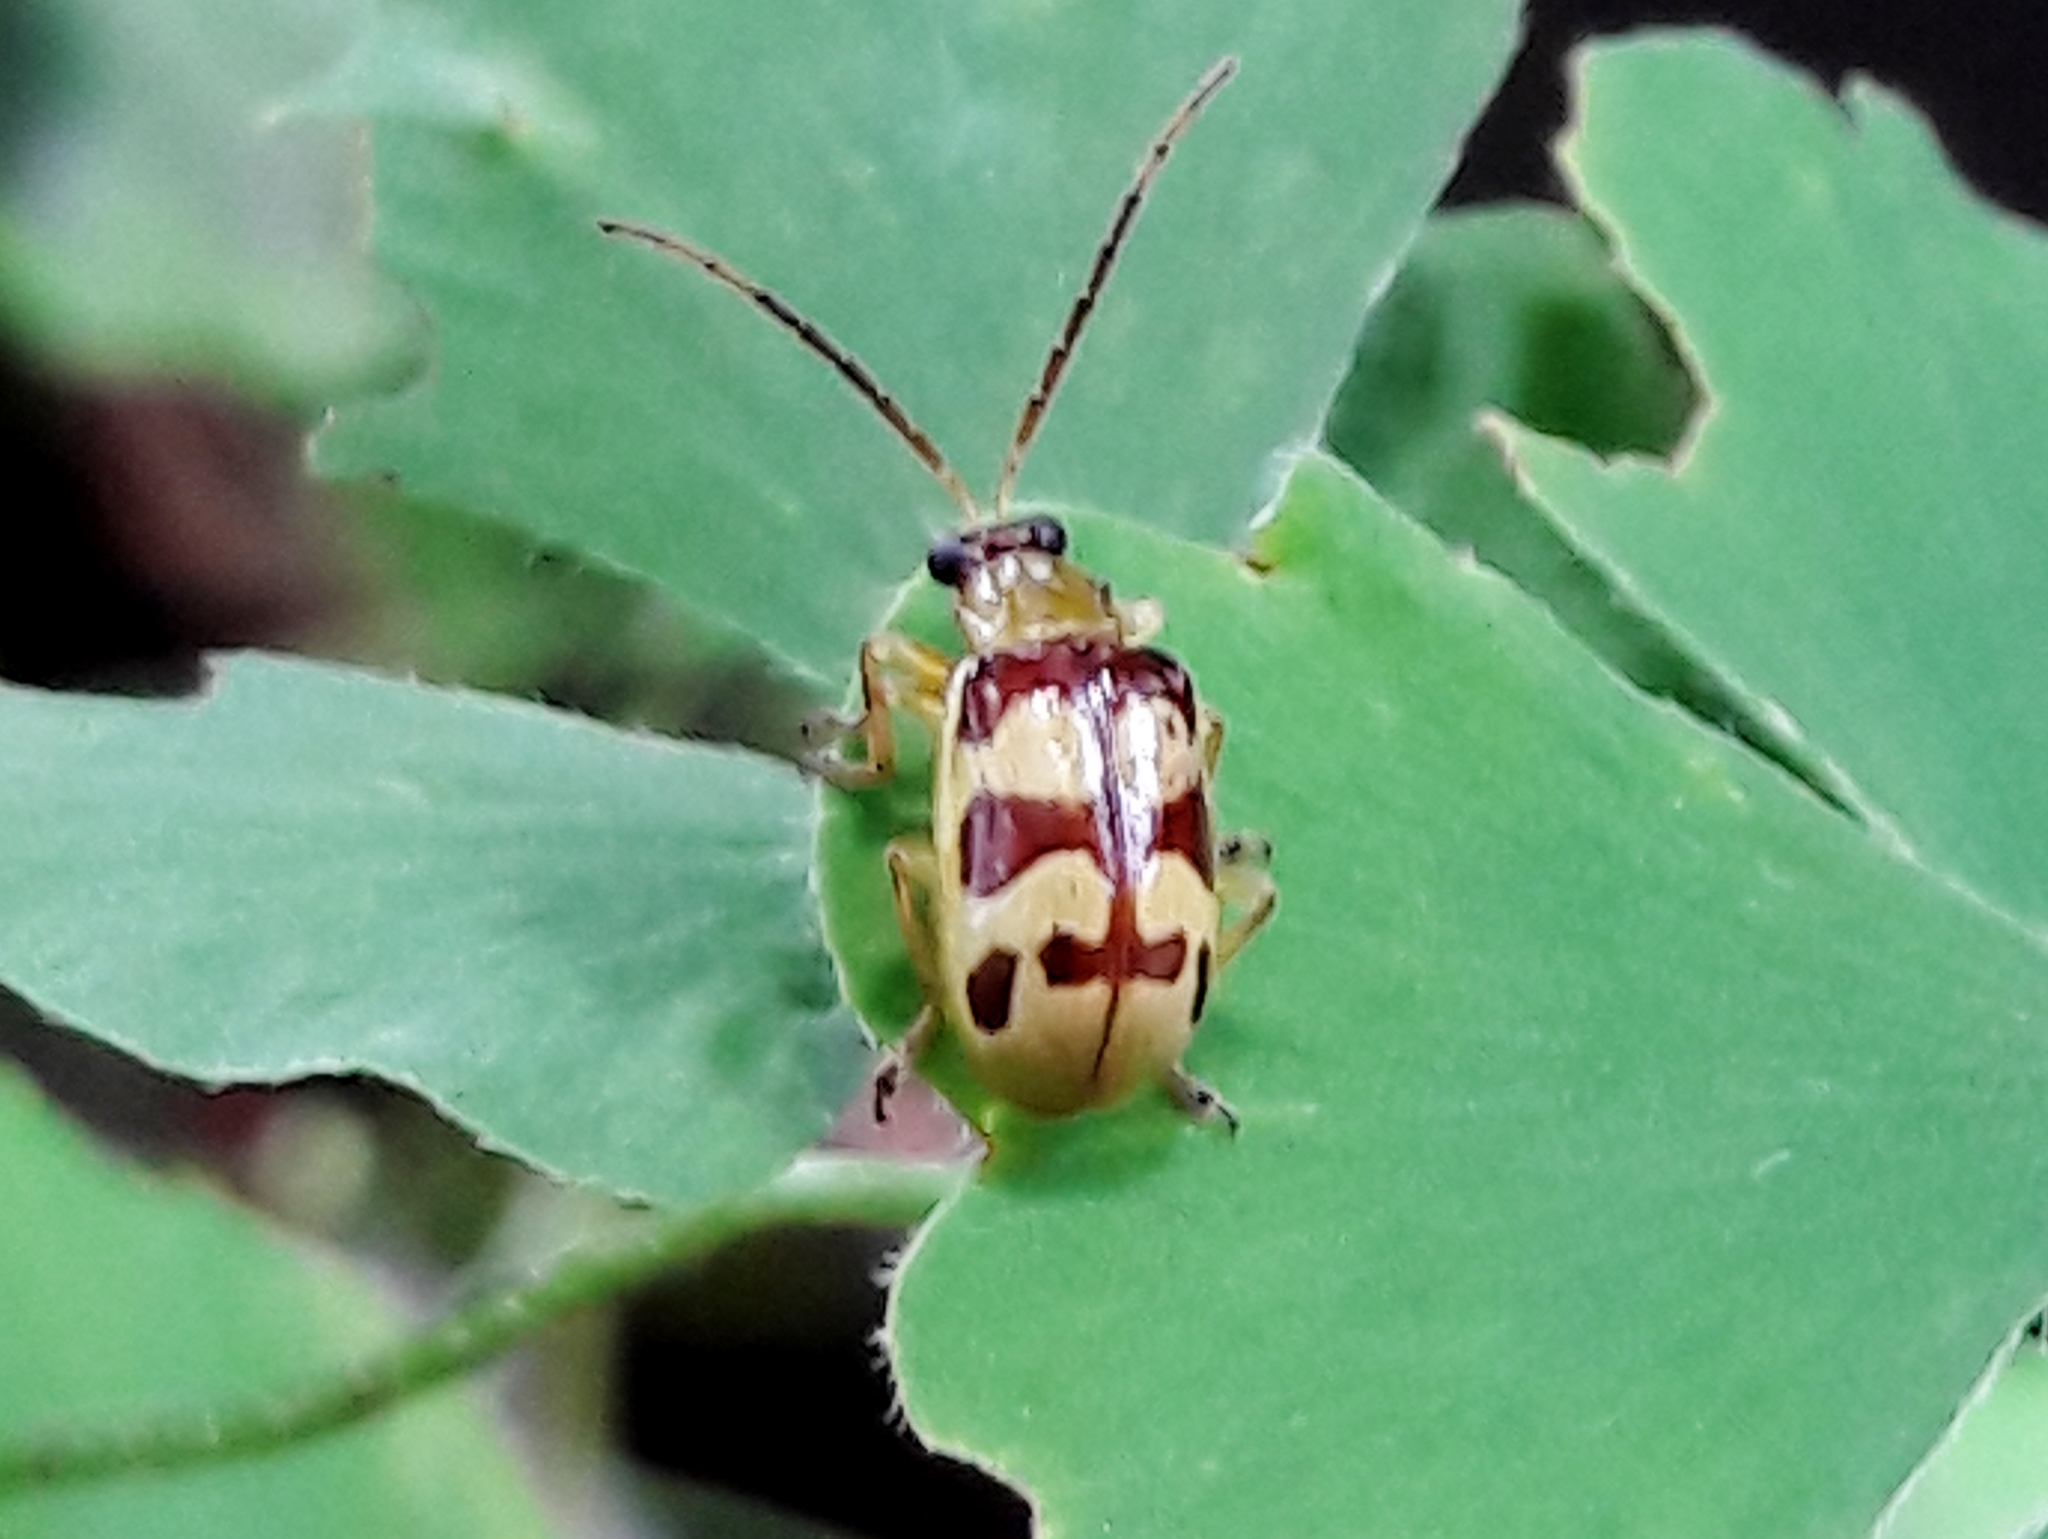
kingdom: Animalia
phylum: Arthropoda
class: Insecta
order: Coleoptera
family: Chrysomelidae
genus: Basiprionota
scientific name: Basiprionota sinuata
